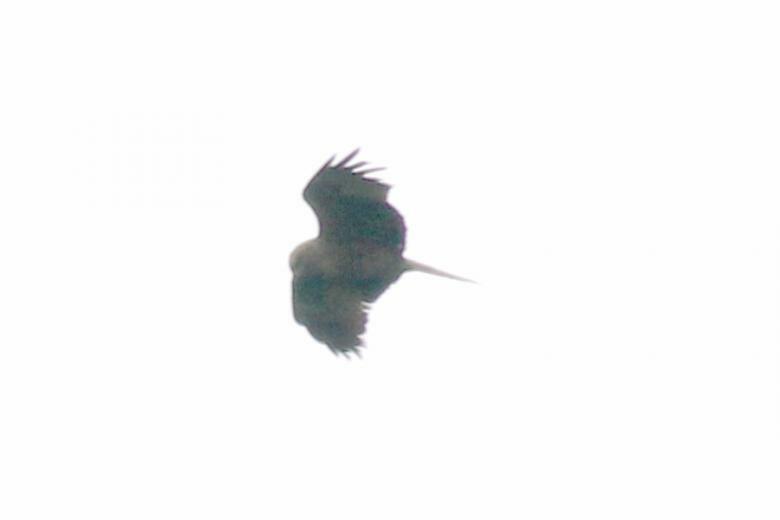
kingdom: Animalia
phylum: Chordata
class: Aves
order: Accipitriformes
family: Accipitridae
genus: Milvus
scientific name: Milvus migrans
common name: Black kite
